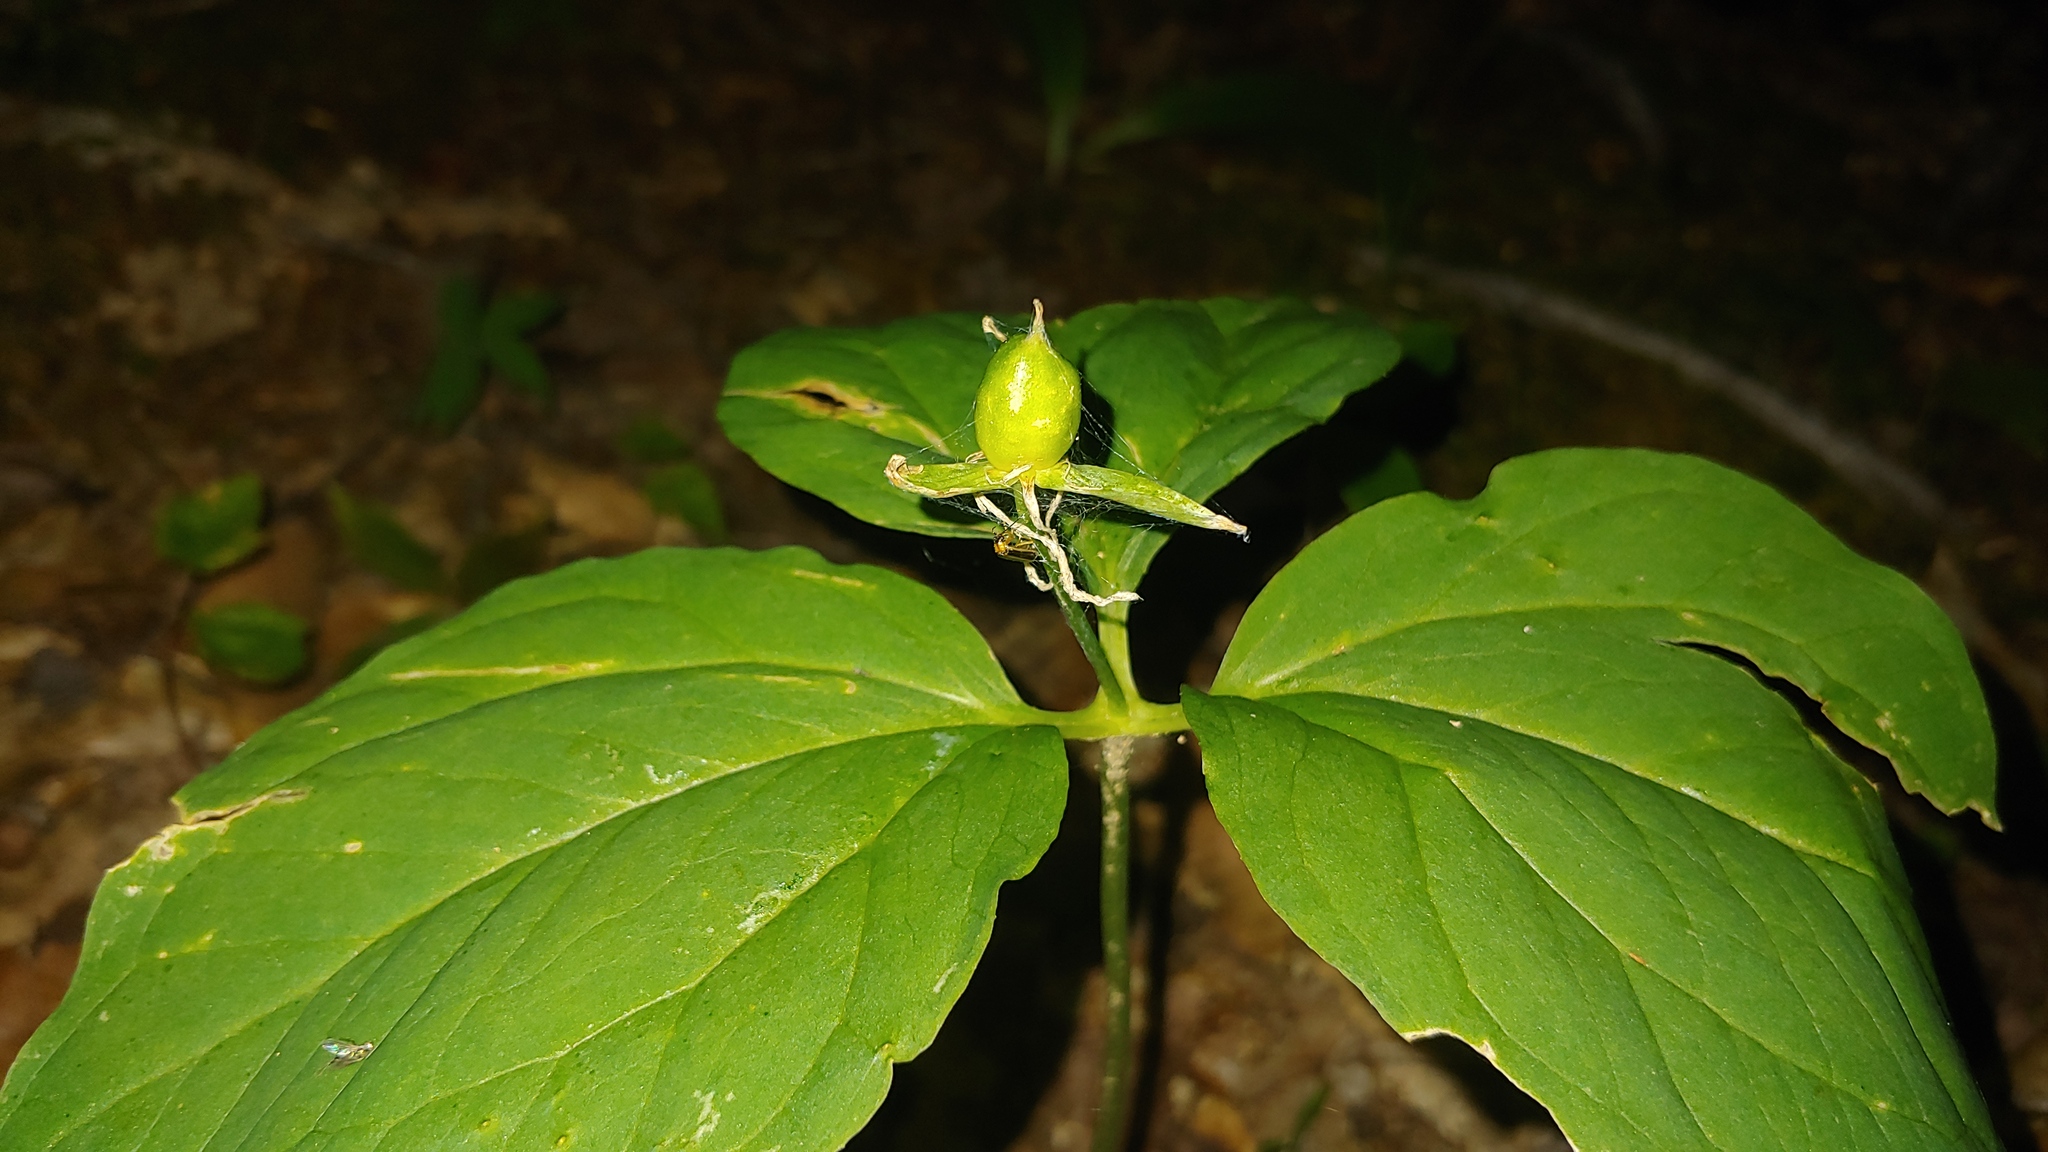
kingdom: Plantae
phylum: Tracheophyta
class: Liliopsida
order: Liliales
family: Melanthiaceae
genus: Trillium
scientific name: Trillium undulatum
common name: Paint trillium
